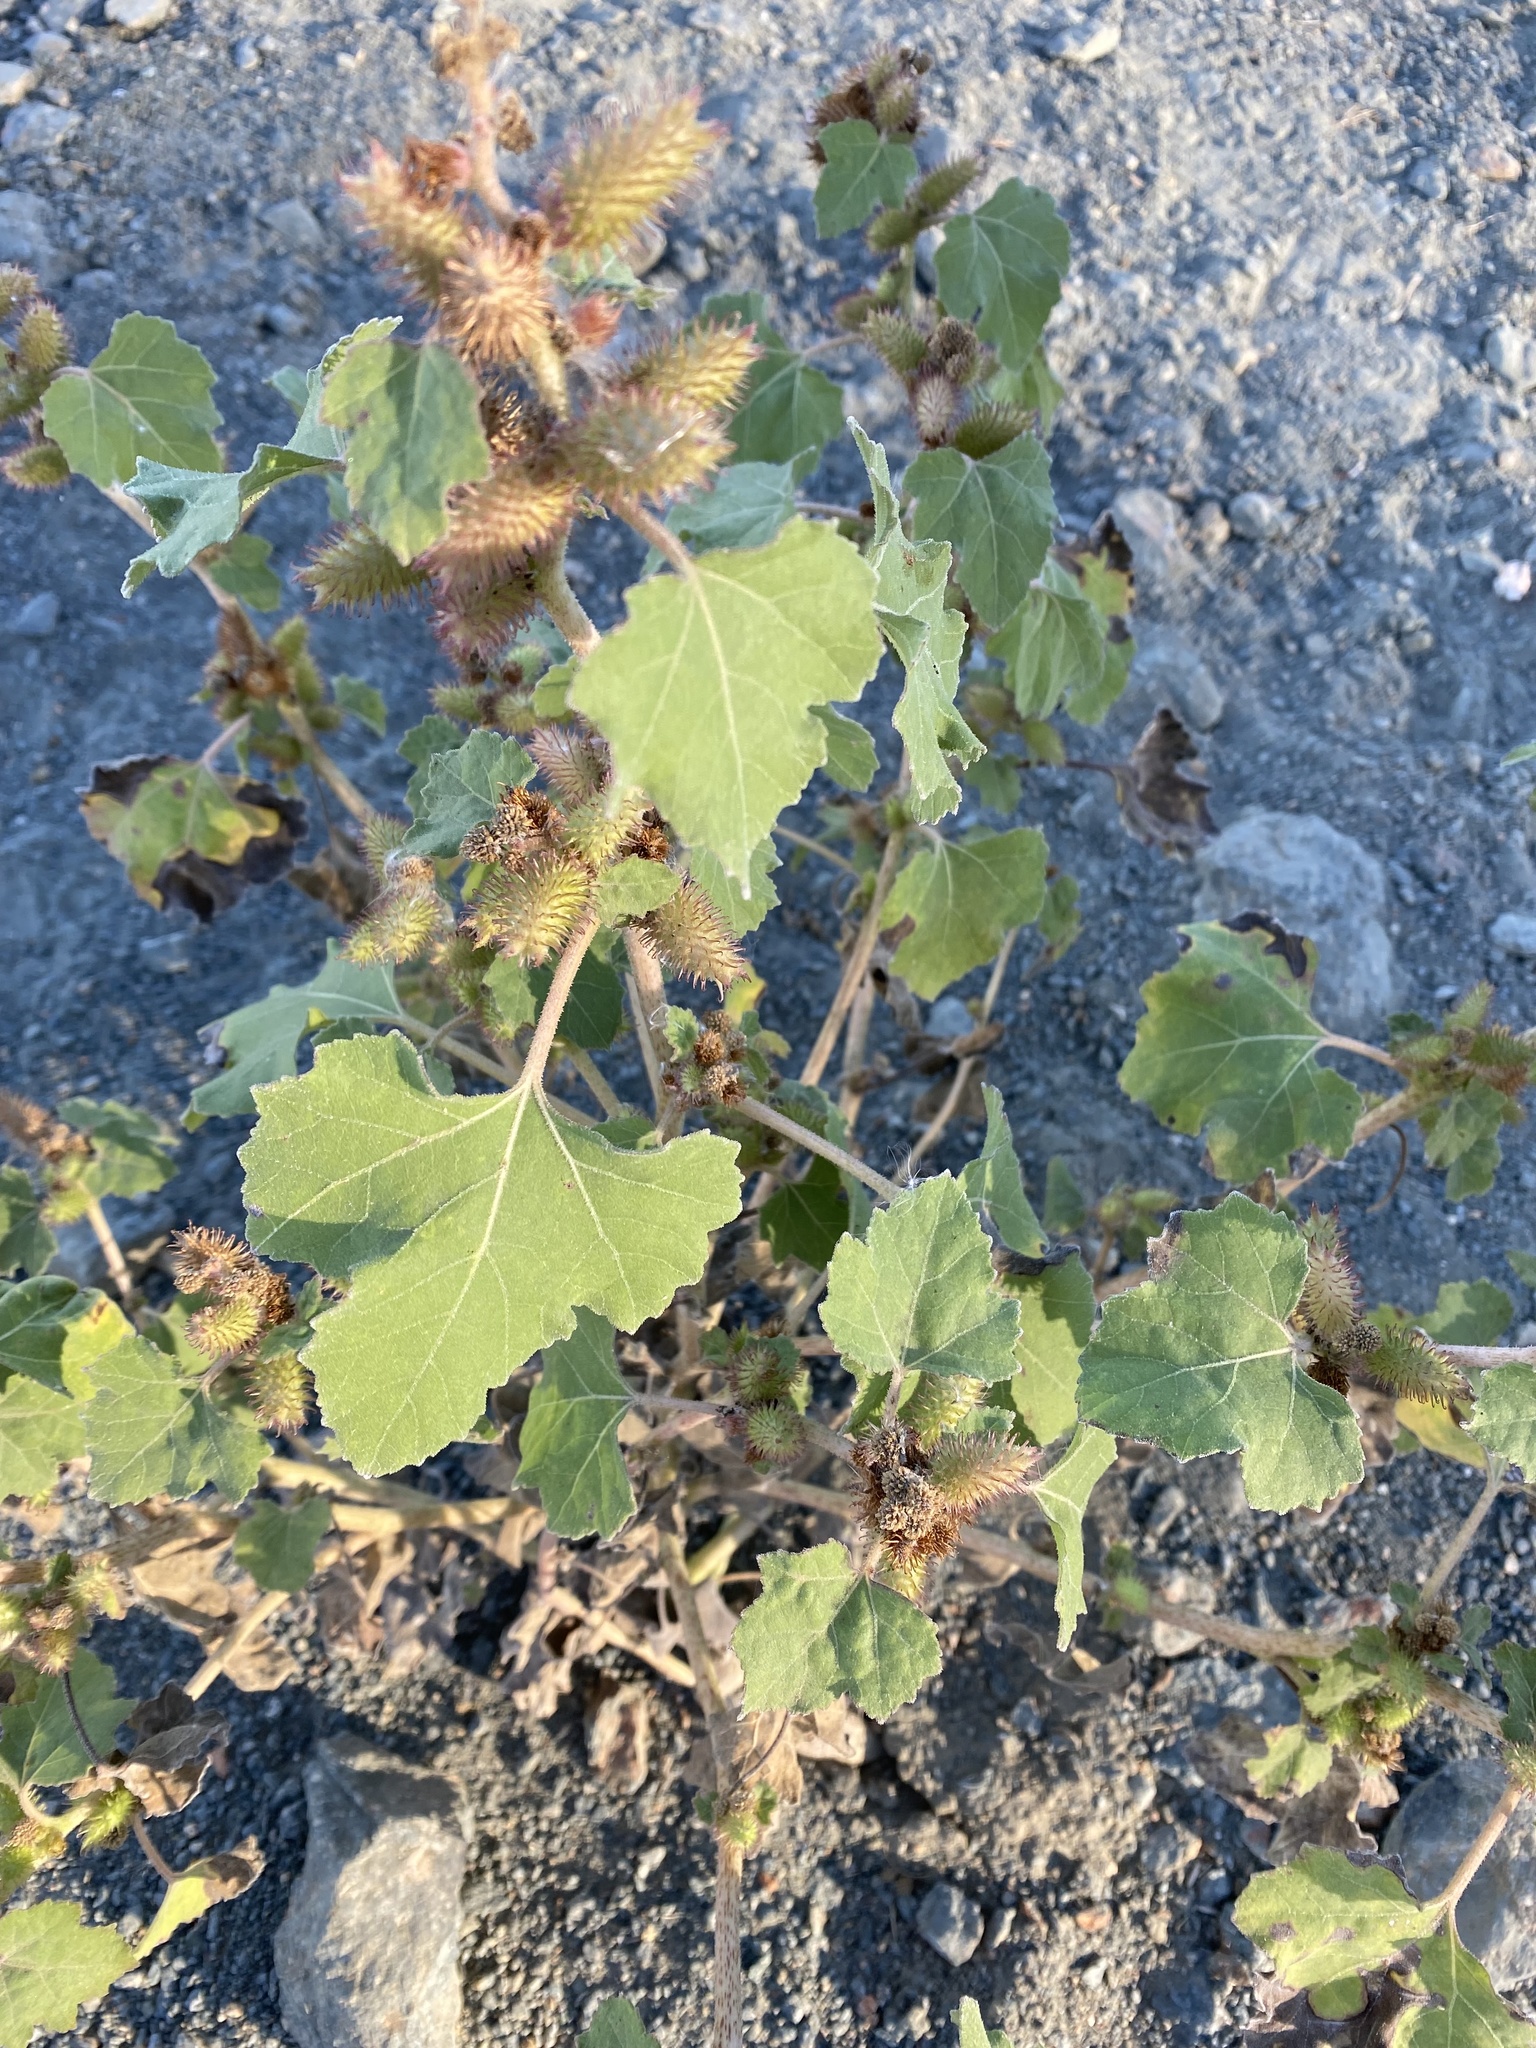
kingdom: Plantae
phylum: Tracheophyta
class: Magnoliopsida
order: Asterales
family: Asteraceae
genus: Xanthium
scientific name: Xanthium strumarium
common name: Rough cocklebur
